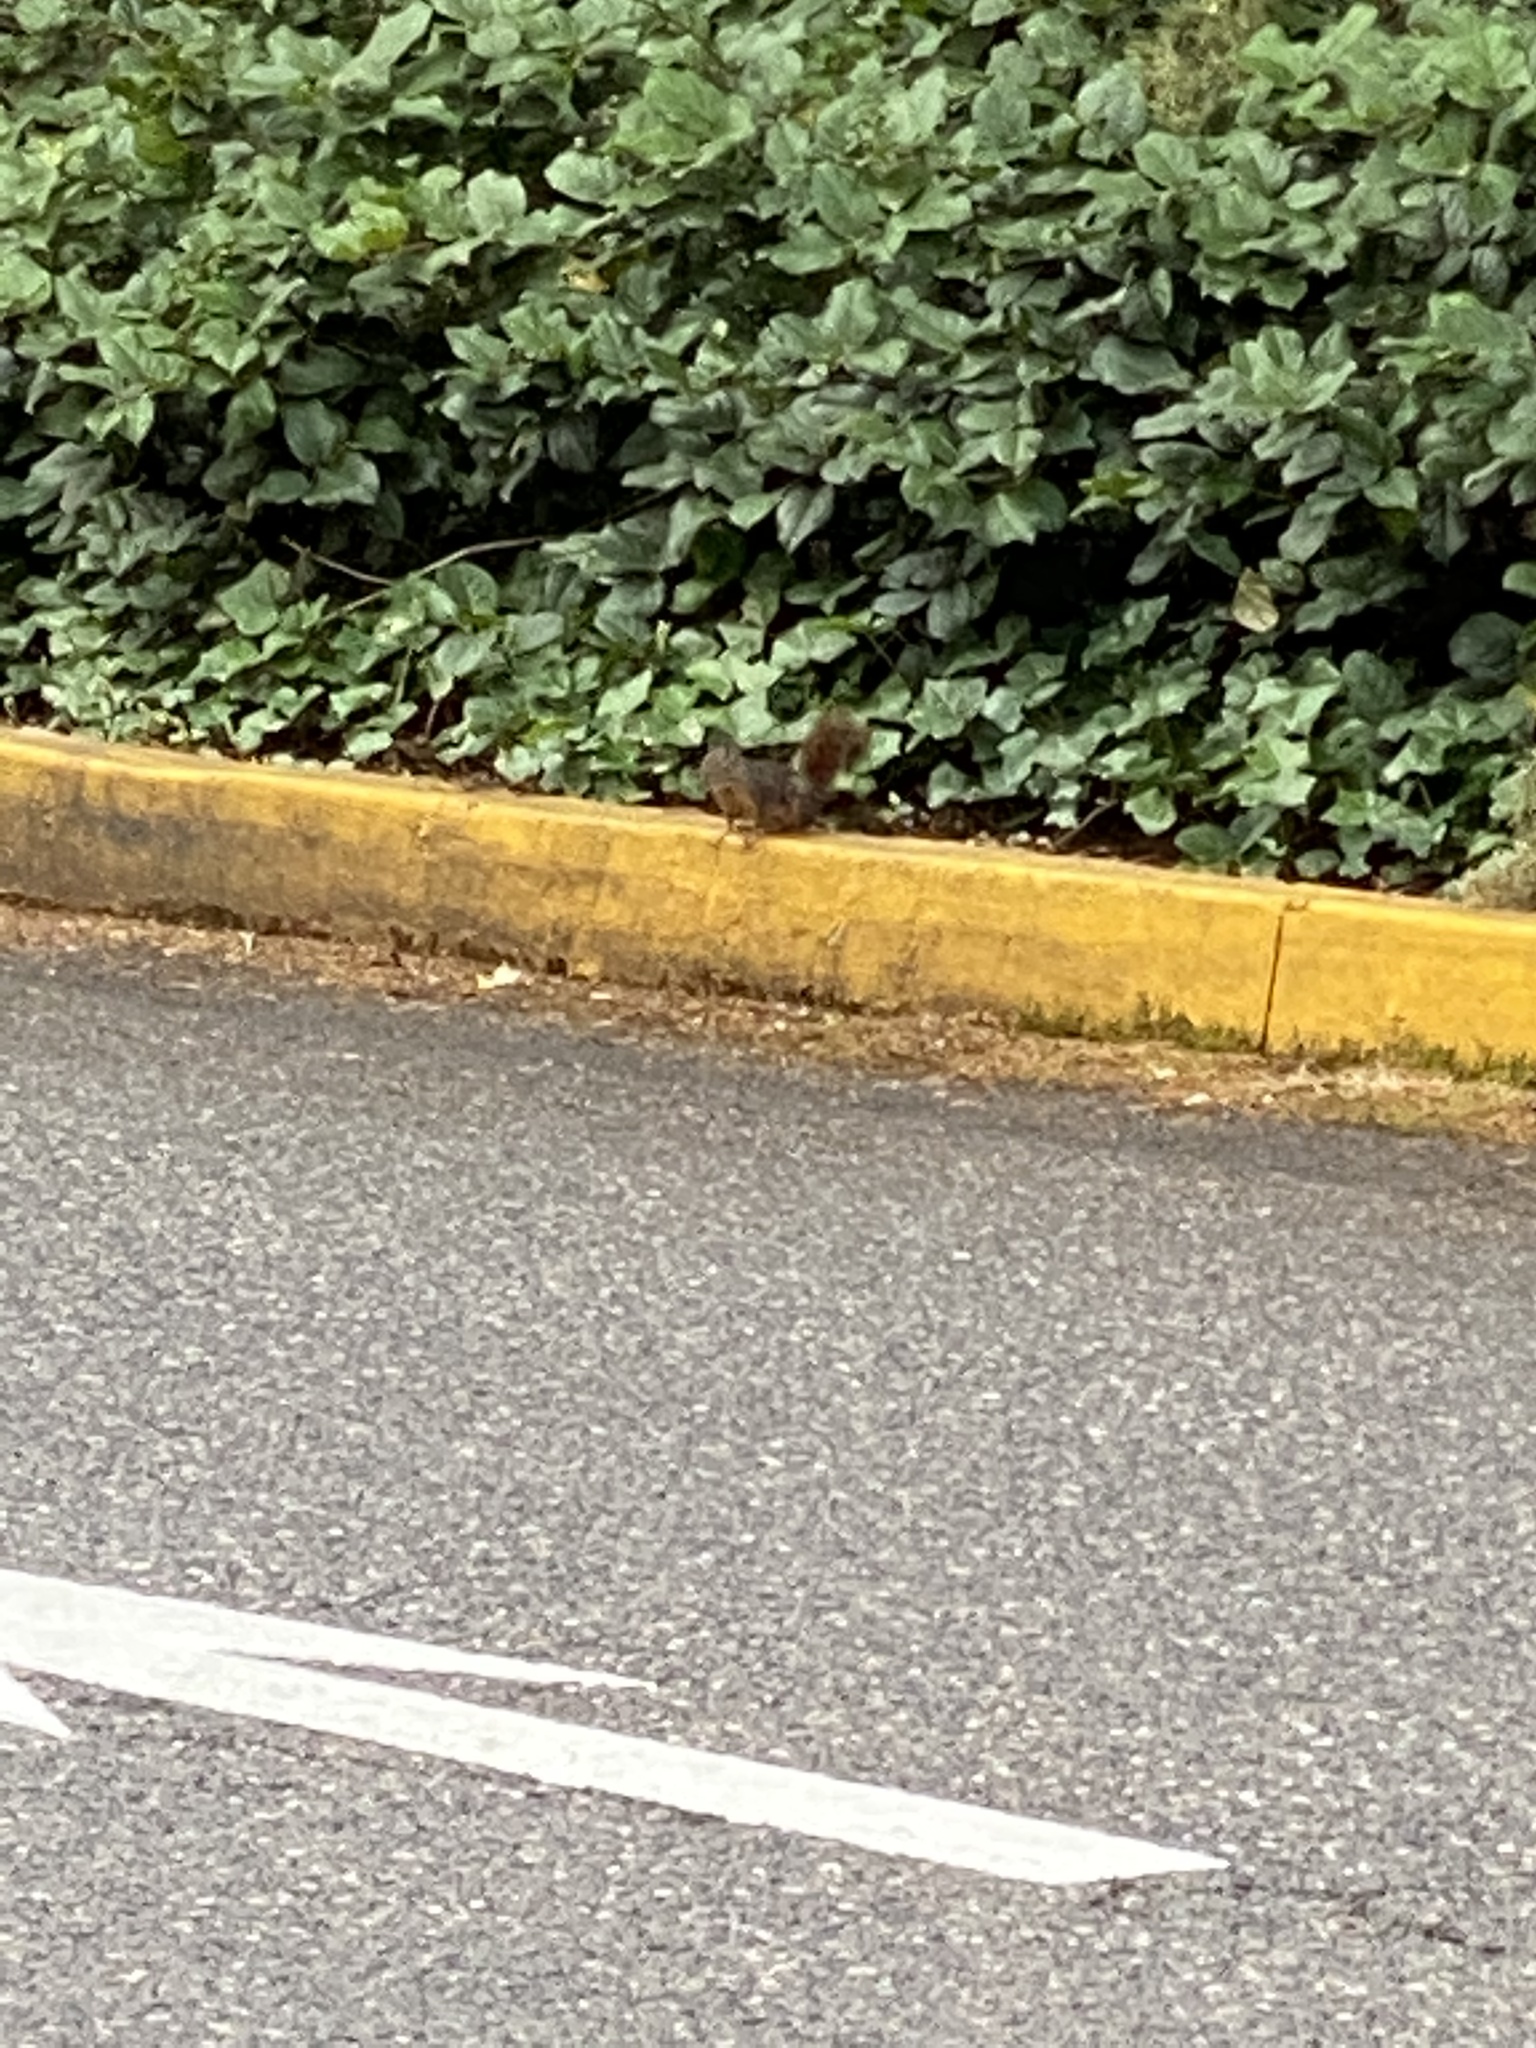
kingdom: Animalia
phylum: Chordata
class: Mammalia
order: Rodentia
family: Sciuridae
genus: Tamiasciurus
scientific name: Tamiasciurus douglasii
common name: Douglas's squirrel
